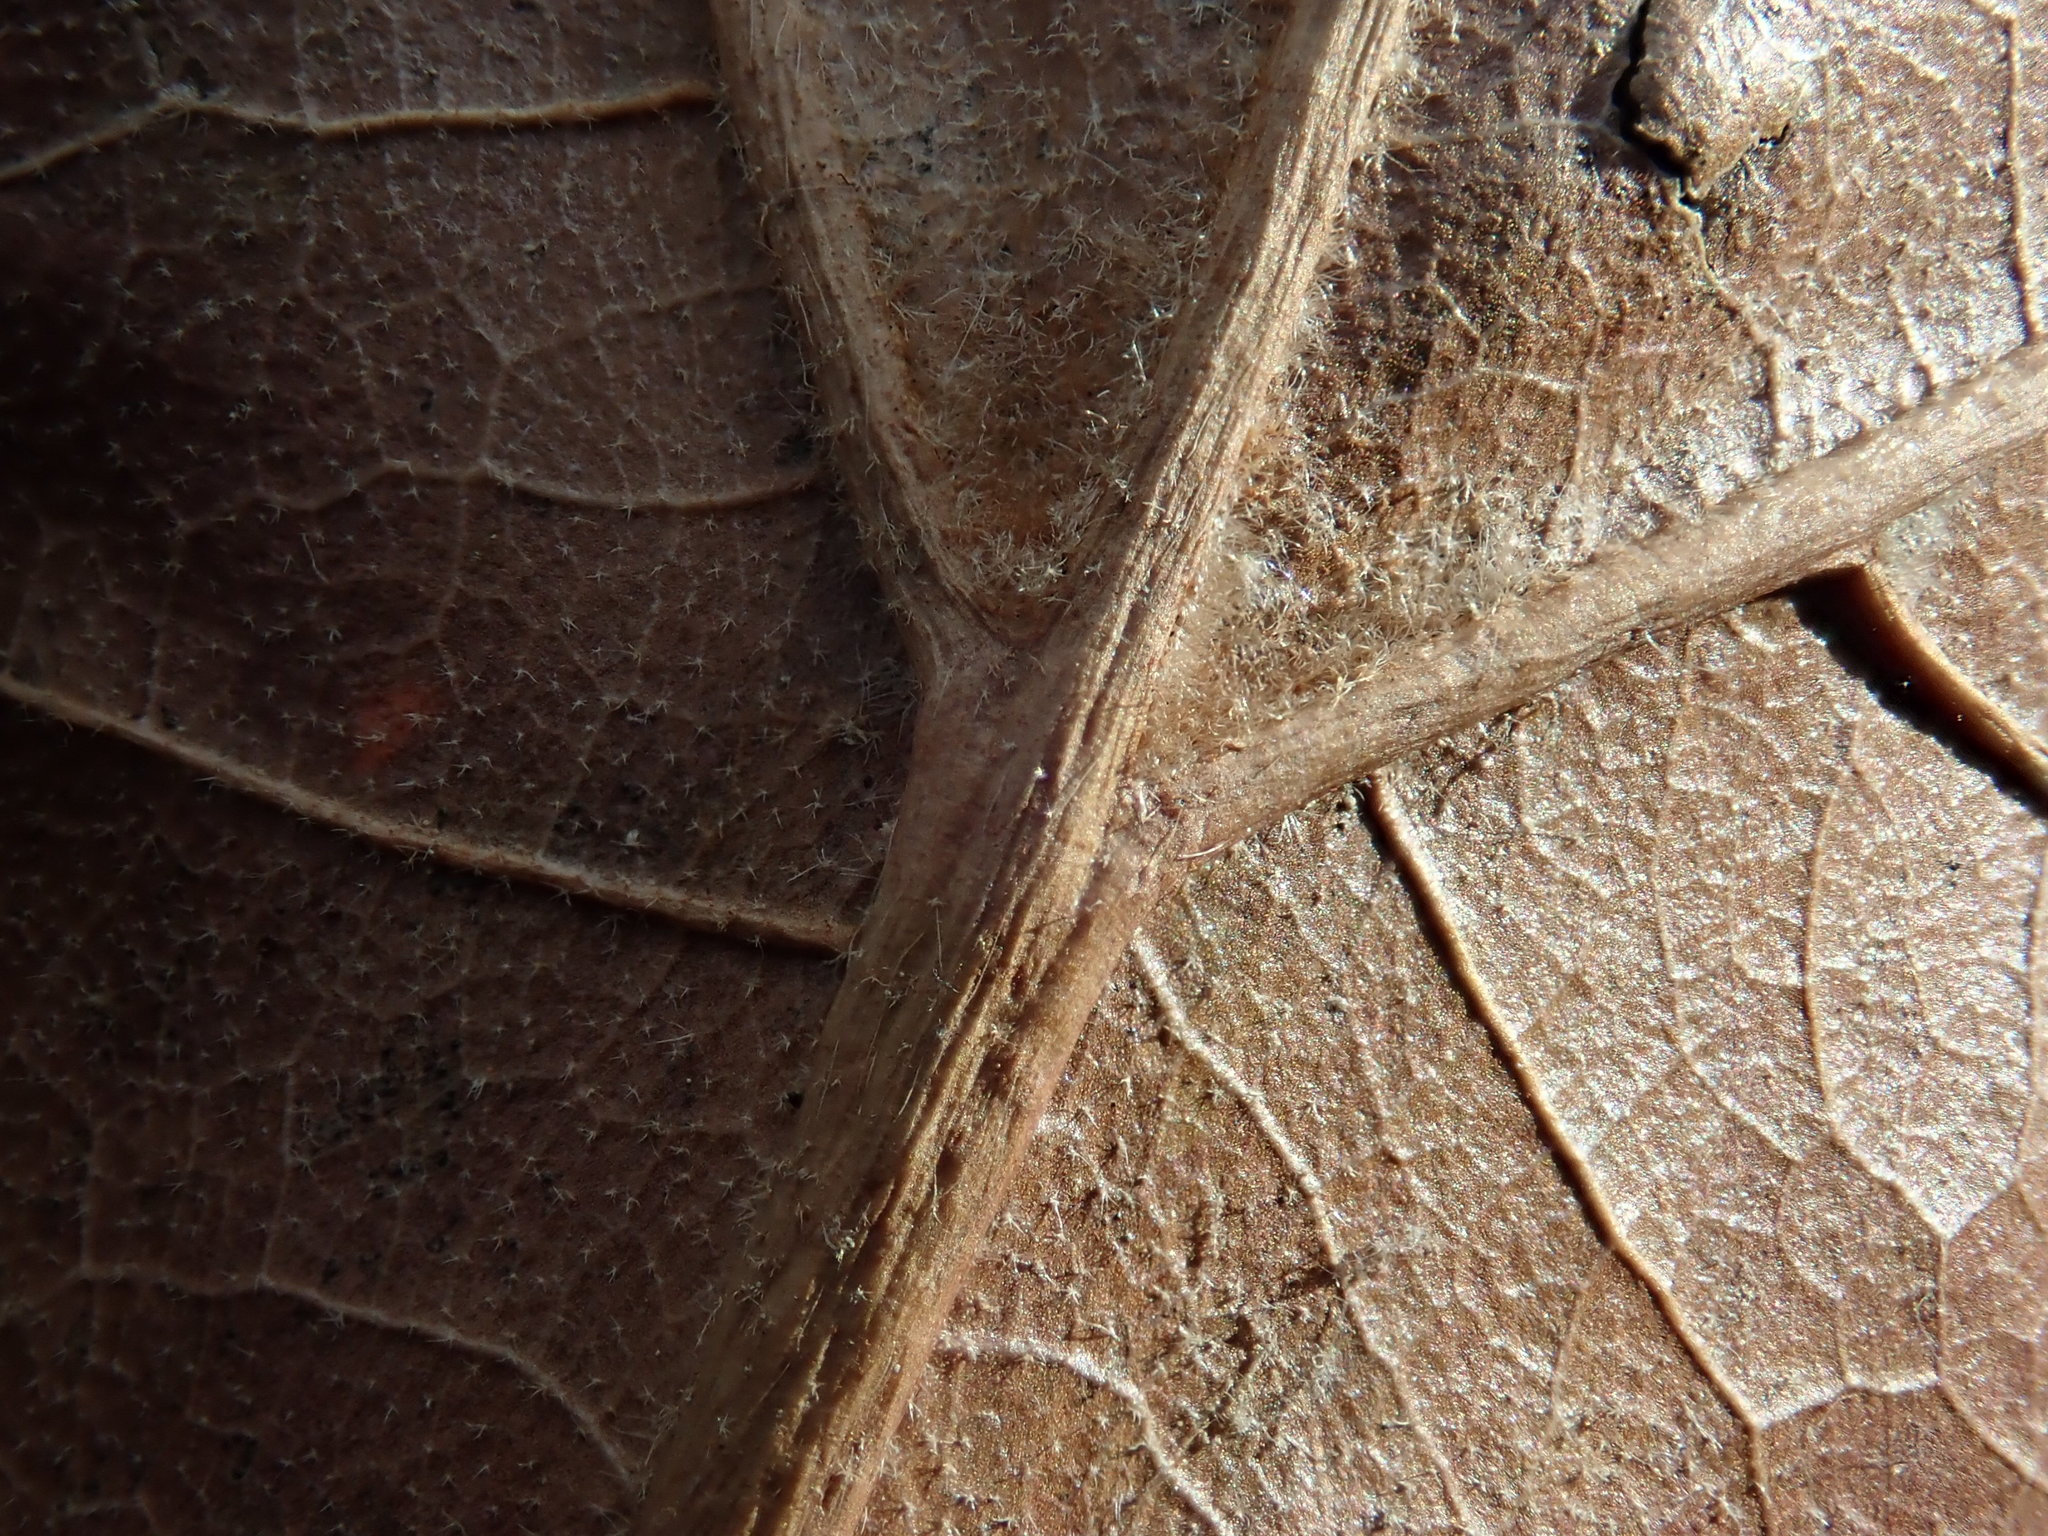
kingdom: Plantae
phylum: Tracheophyta
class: Magnoliopsida
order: Fagales
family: Fagaceae
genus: Quercus
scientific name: Quercus velutina
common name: Black oak
